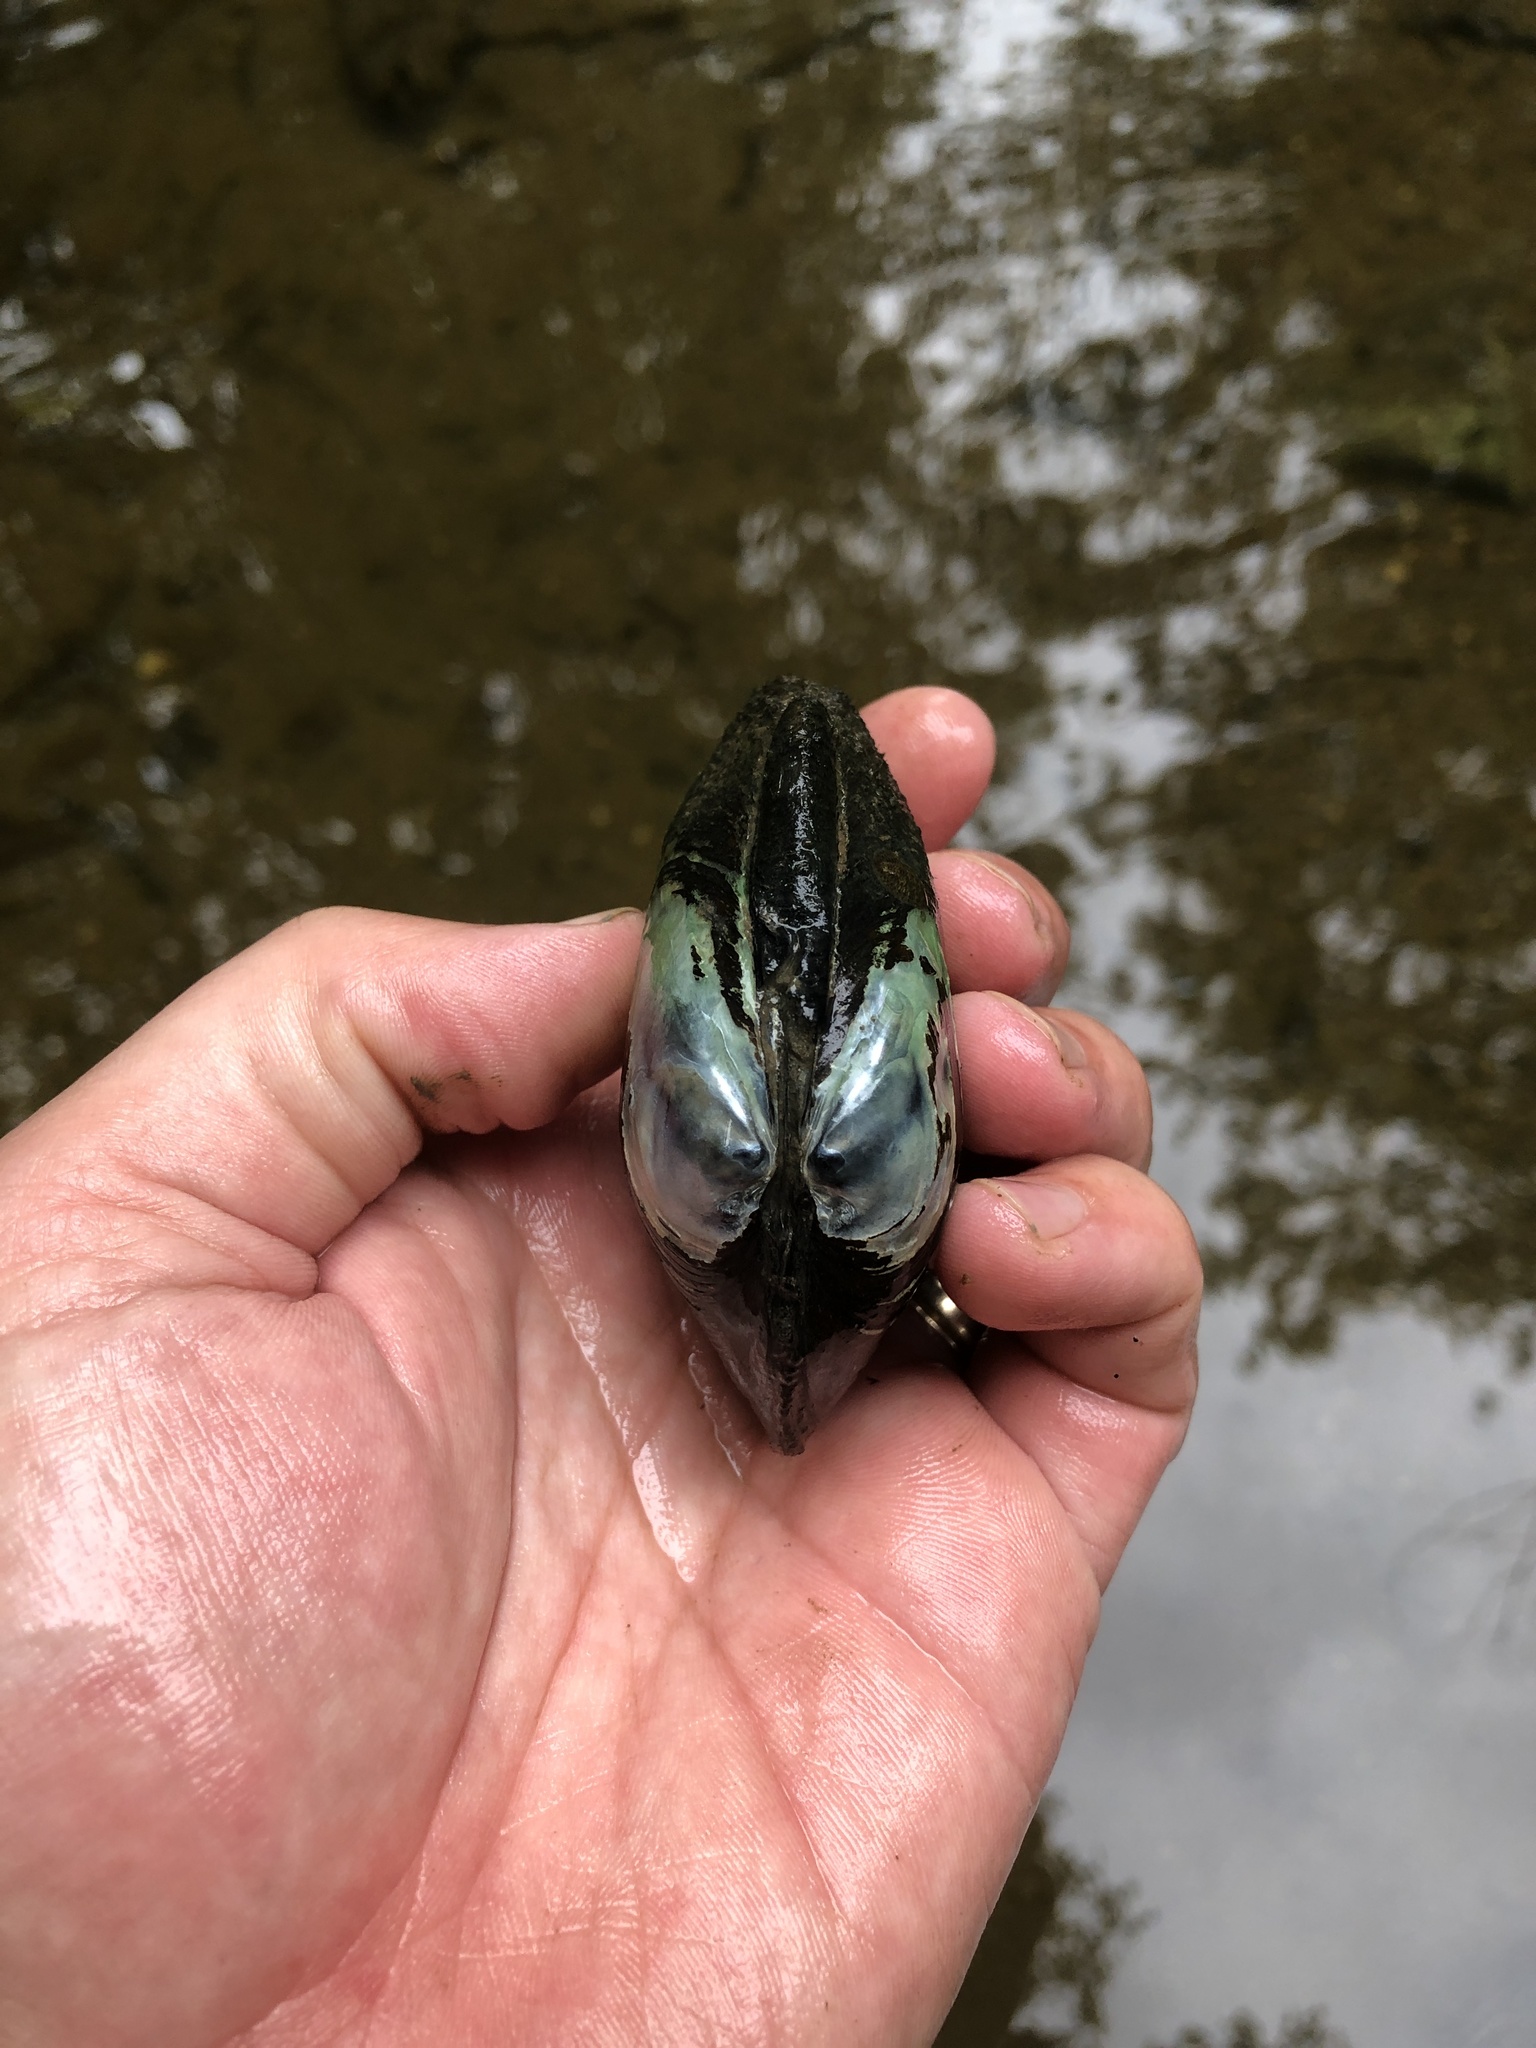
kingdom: Animalia
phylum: Mollusca
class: Bivalvia
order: Unionida
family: Unionidae
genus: Fusconaia
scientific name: Fusconaia flava
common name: Wabash pigtoe
